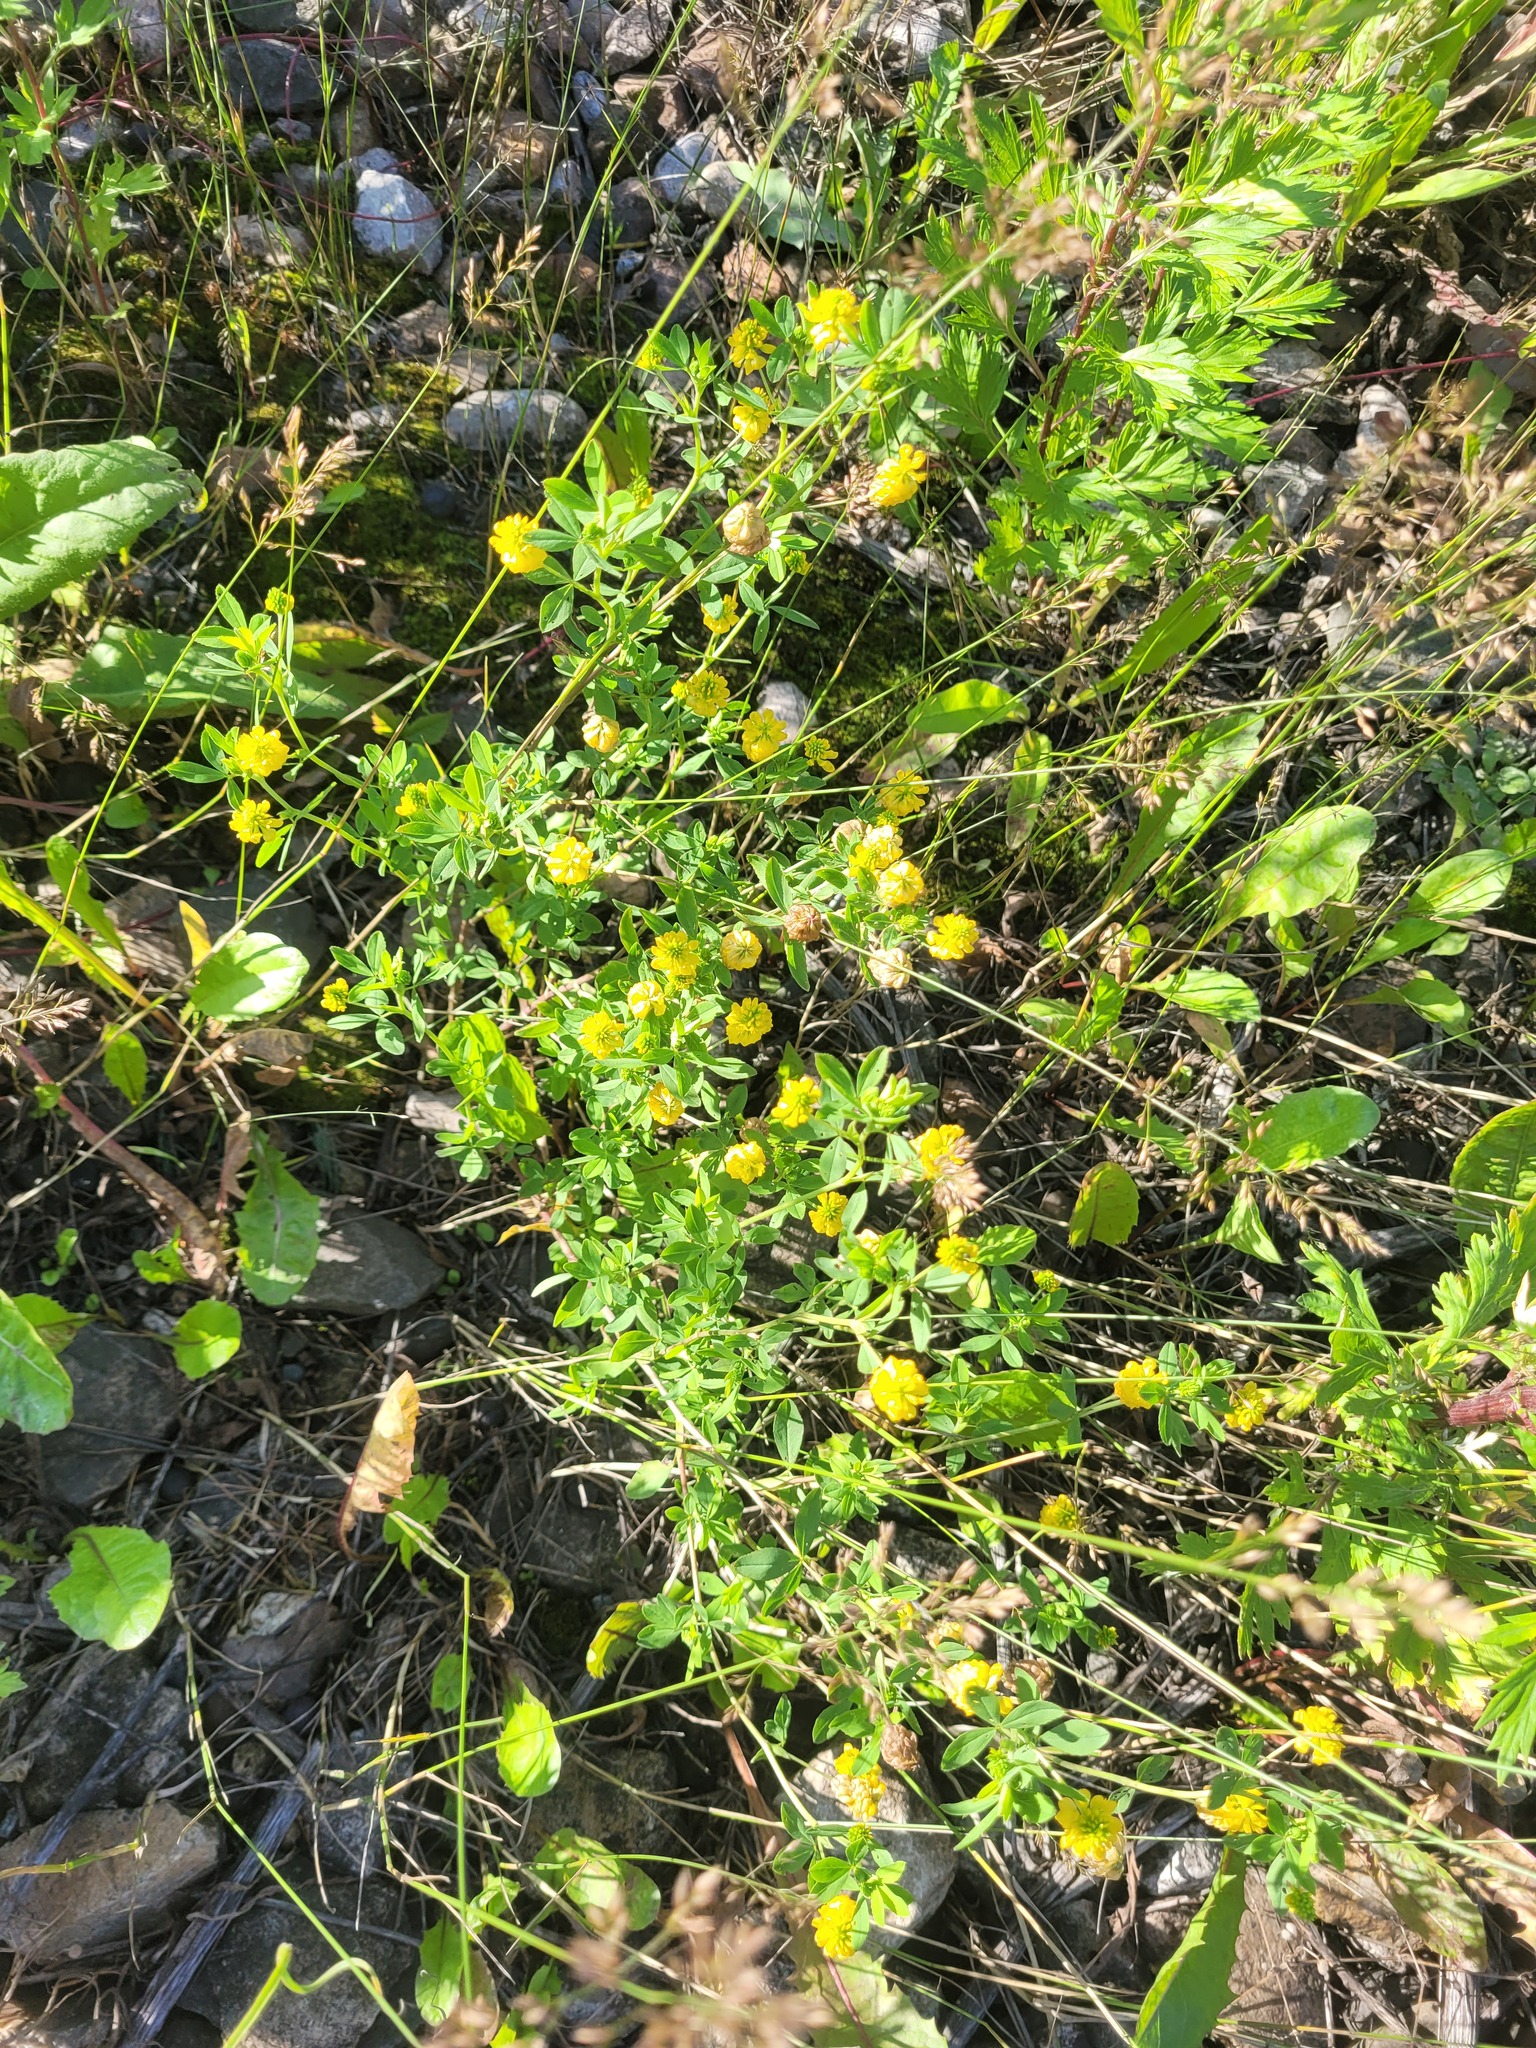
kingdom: Plantae
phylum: Tracheophyta
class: Magnoliopsida
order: Fabales
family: Fabaceae
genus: Trifolium
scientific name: Trifolium aureum
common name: Golden clover
